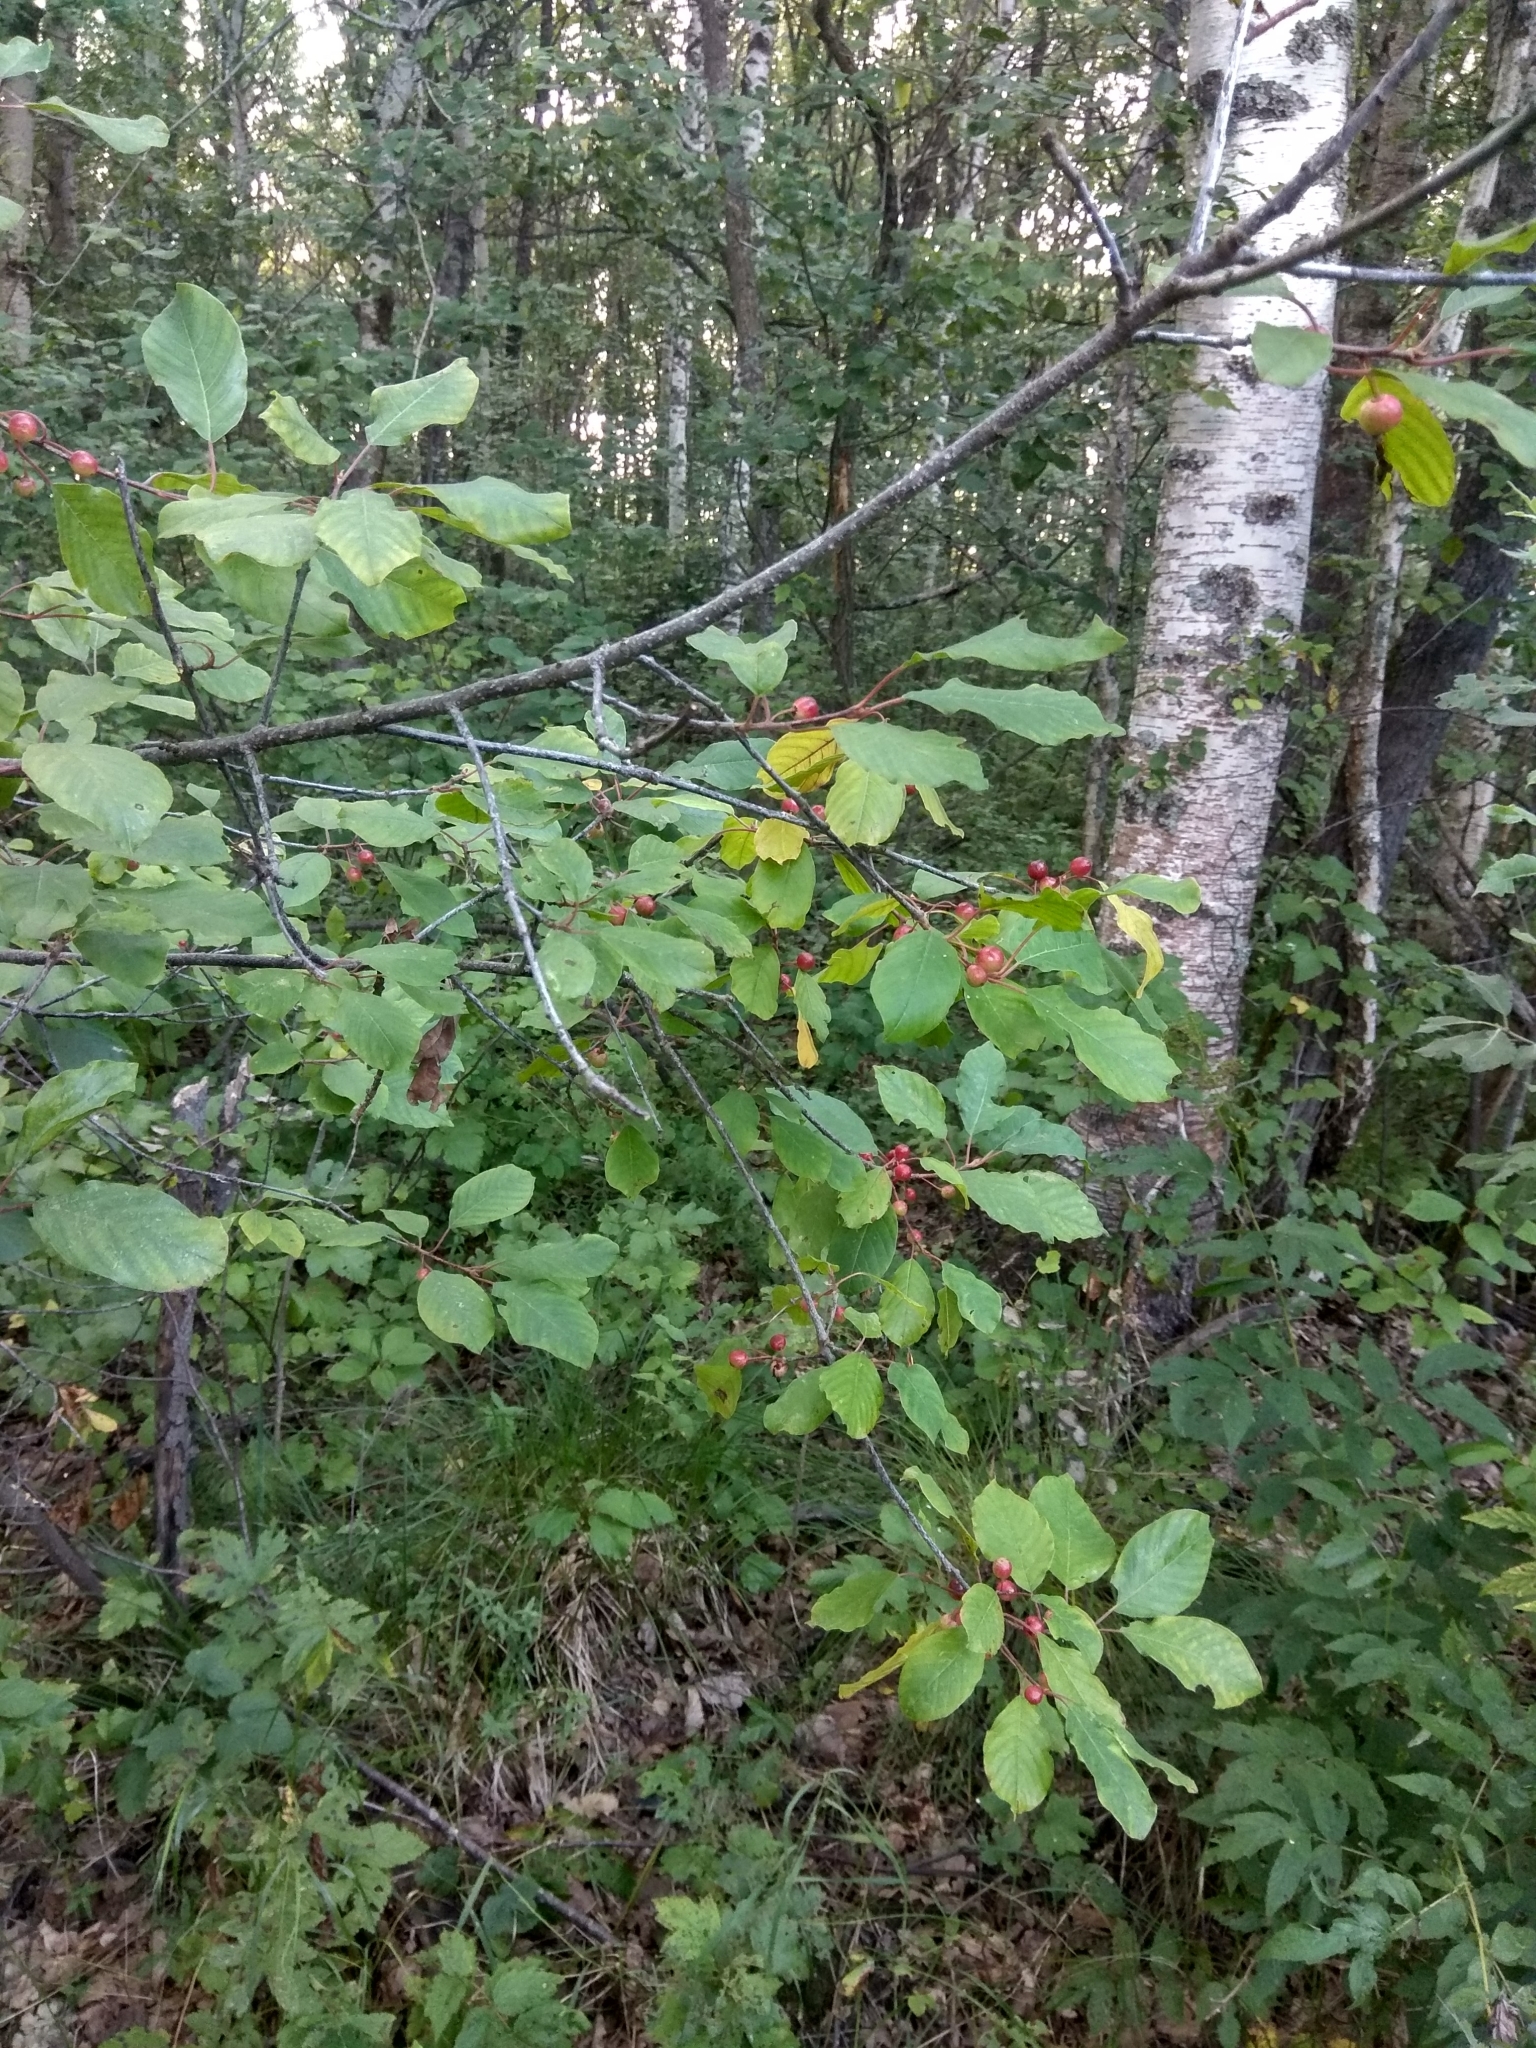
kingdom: Plantae
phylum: Tracheophyta
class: Magnoliopsida
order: Rosales
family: Rhamnaceae
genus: Frangula
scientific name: Frangula alnus
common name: Alder buckthorn
